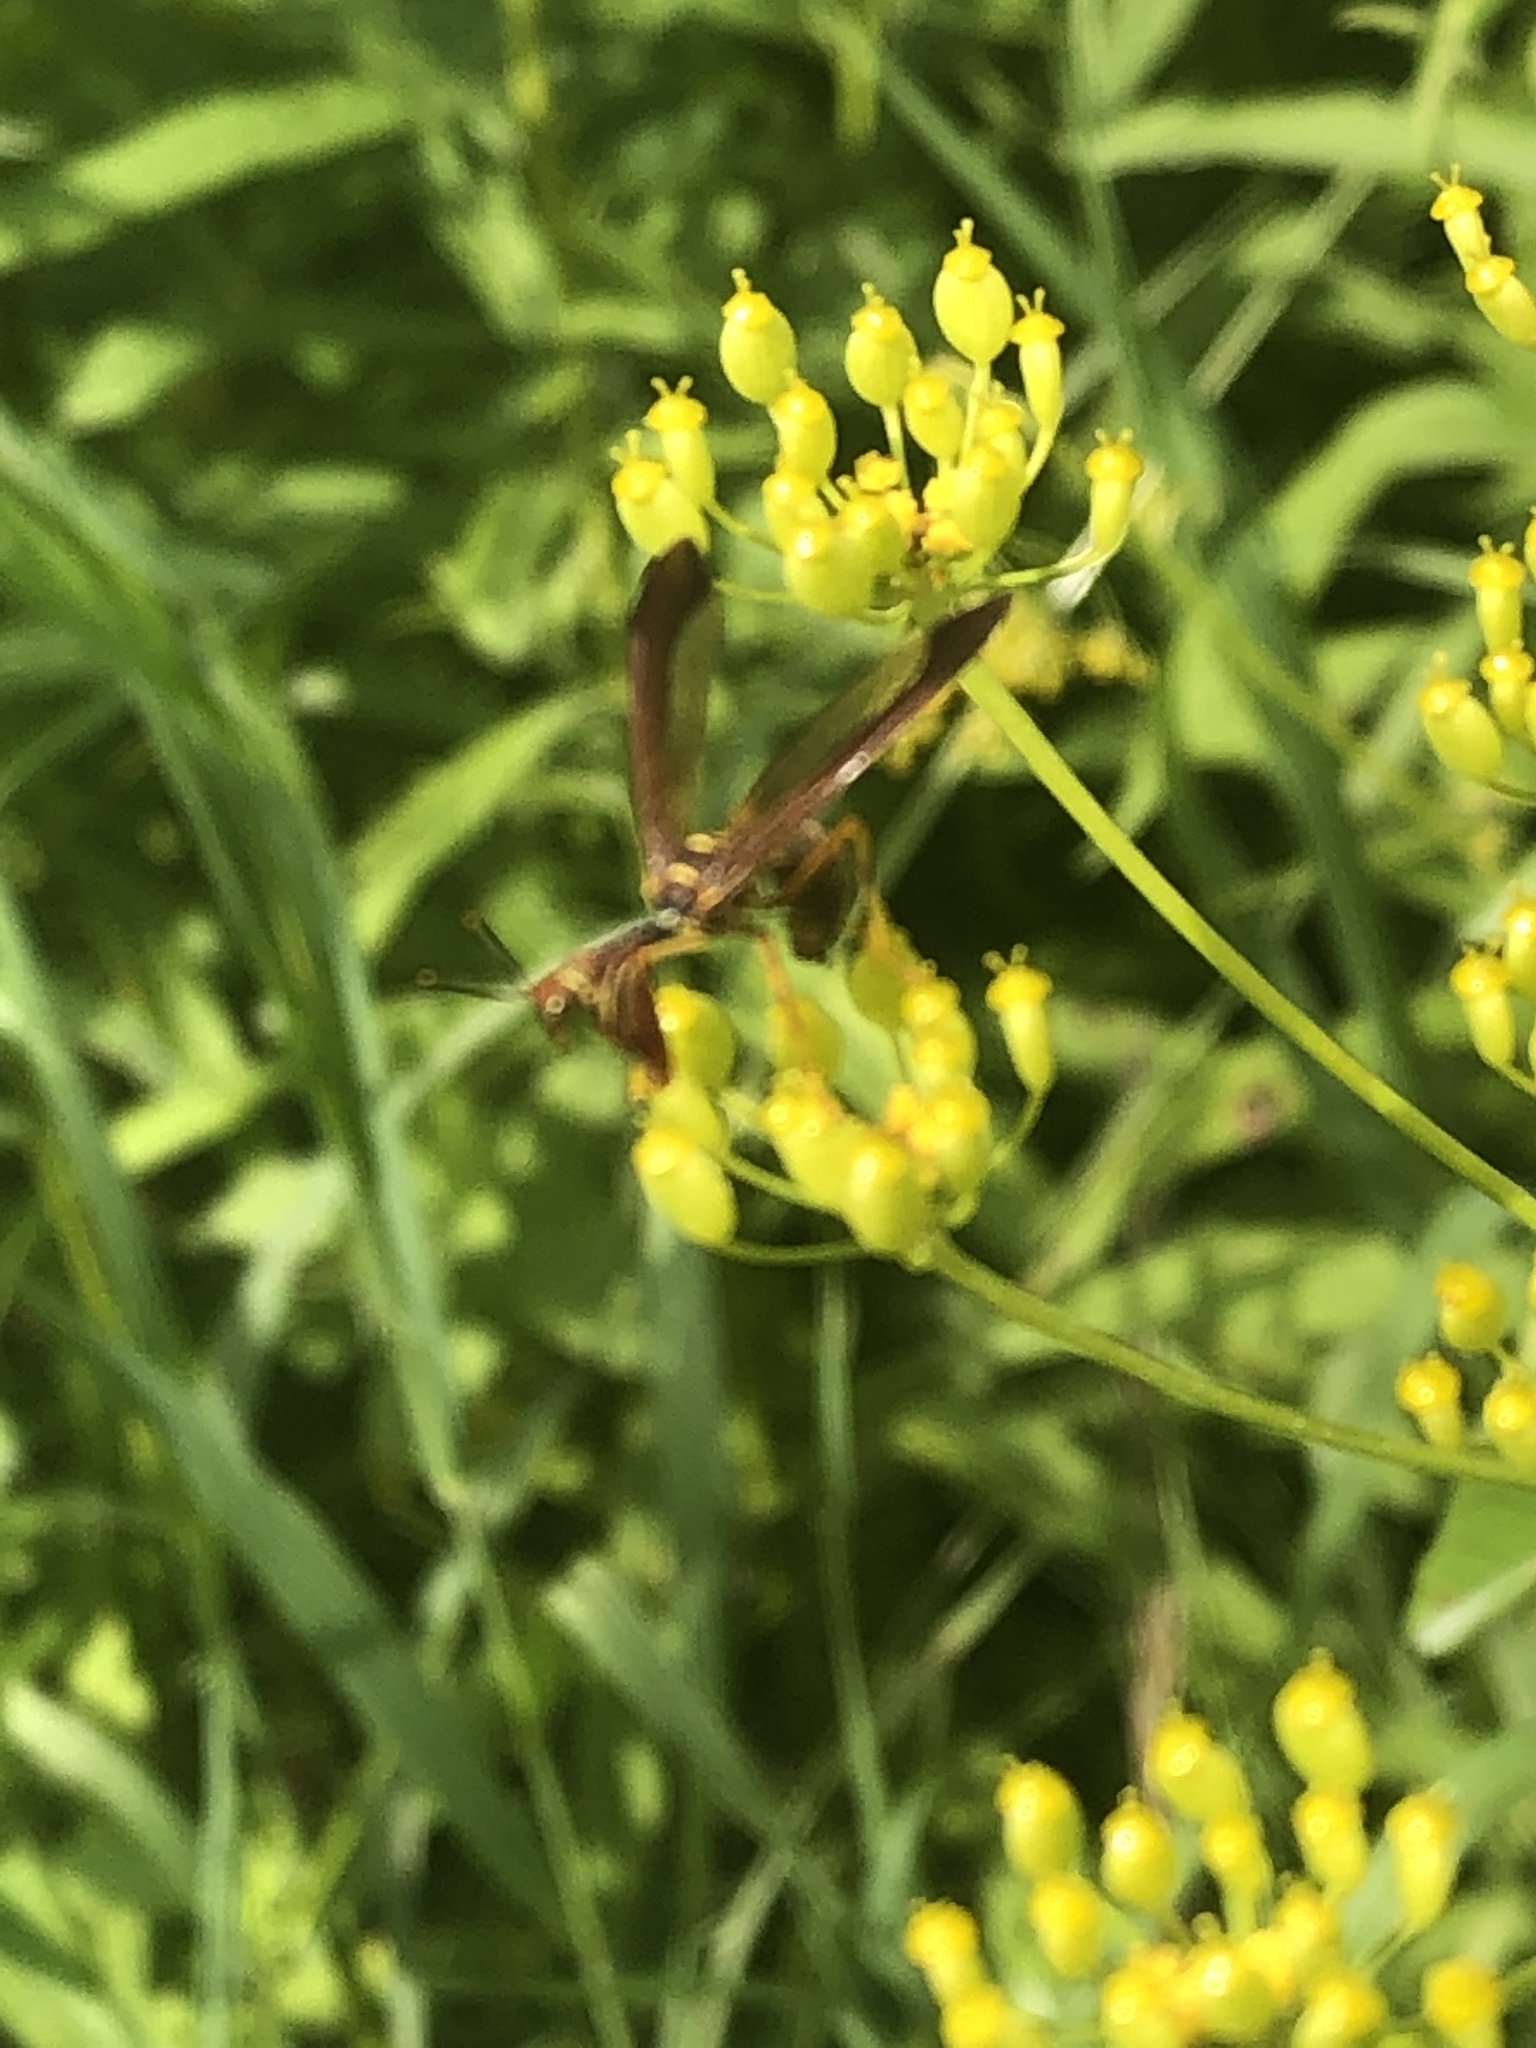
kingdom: Animalia
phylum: Arthropoda
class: Insecta
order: Neuroptera
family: Mantispidae
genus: Climaciella
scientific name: Climaciella brunnea
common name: Brown wasp mantidfly
